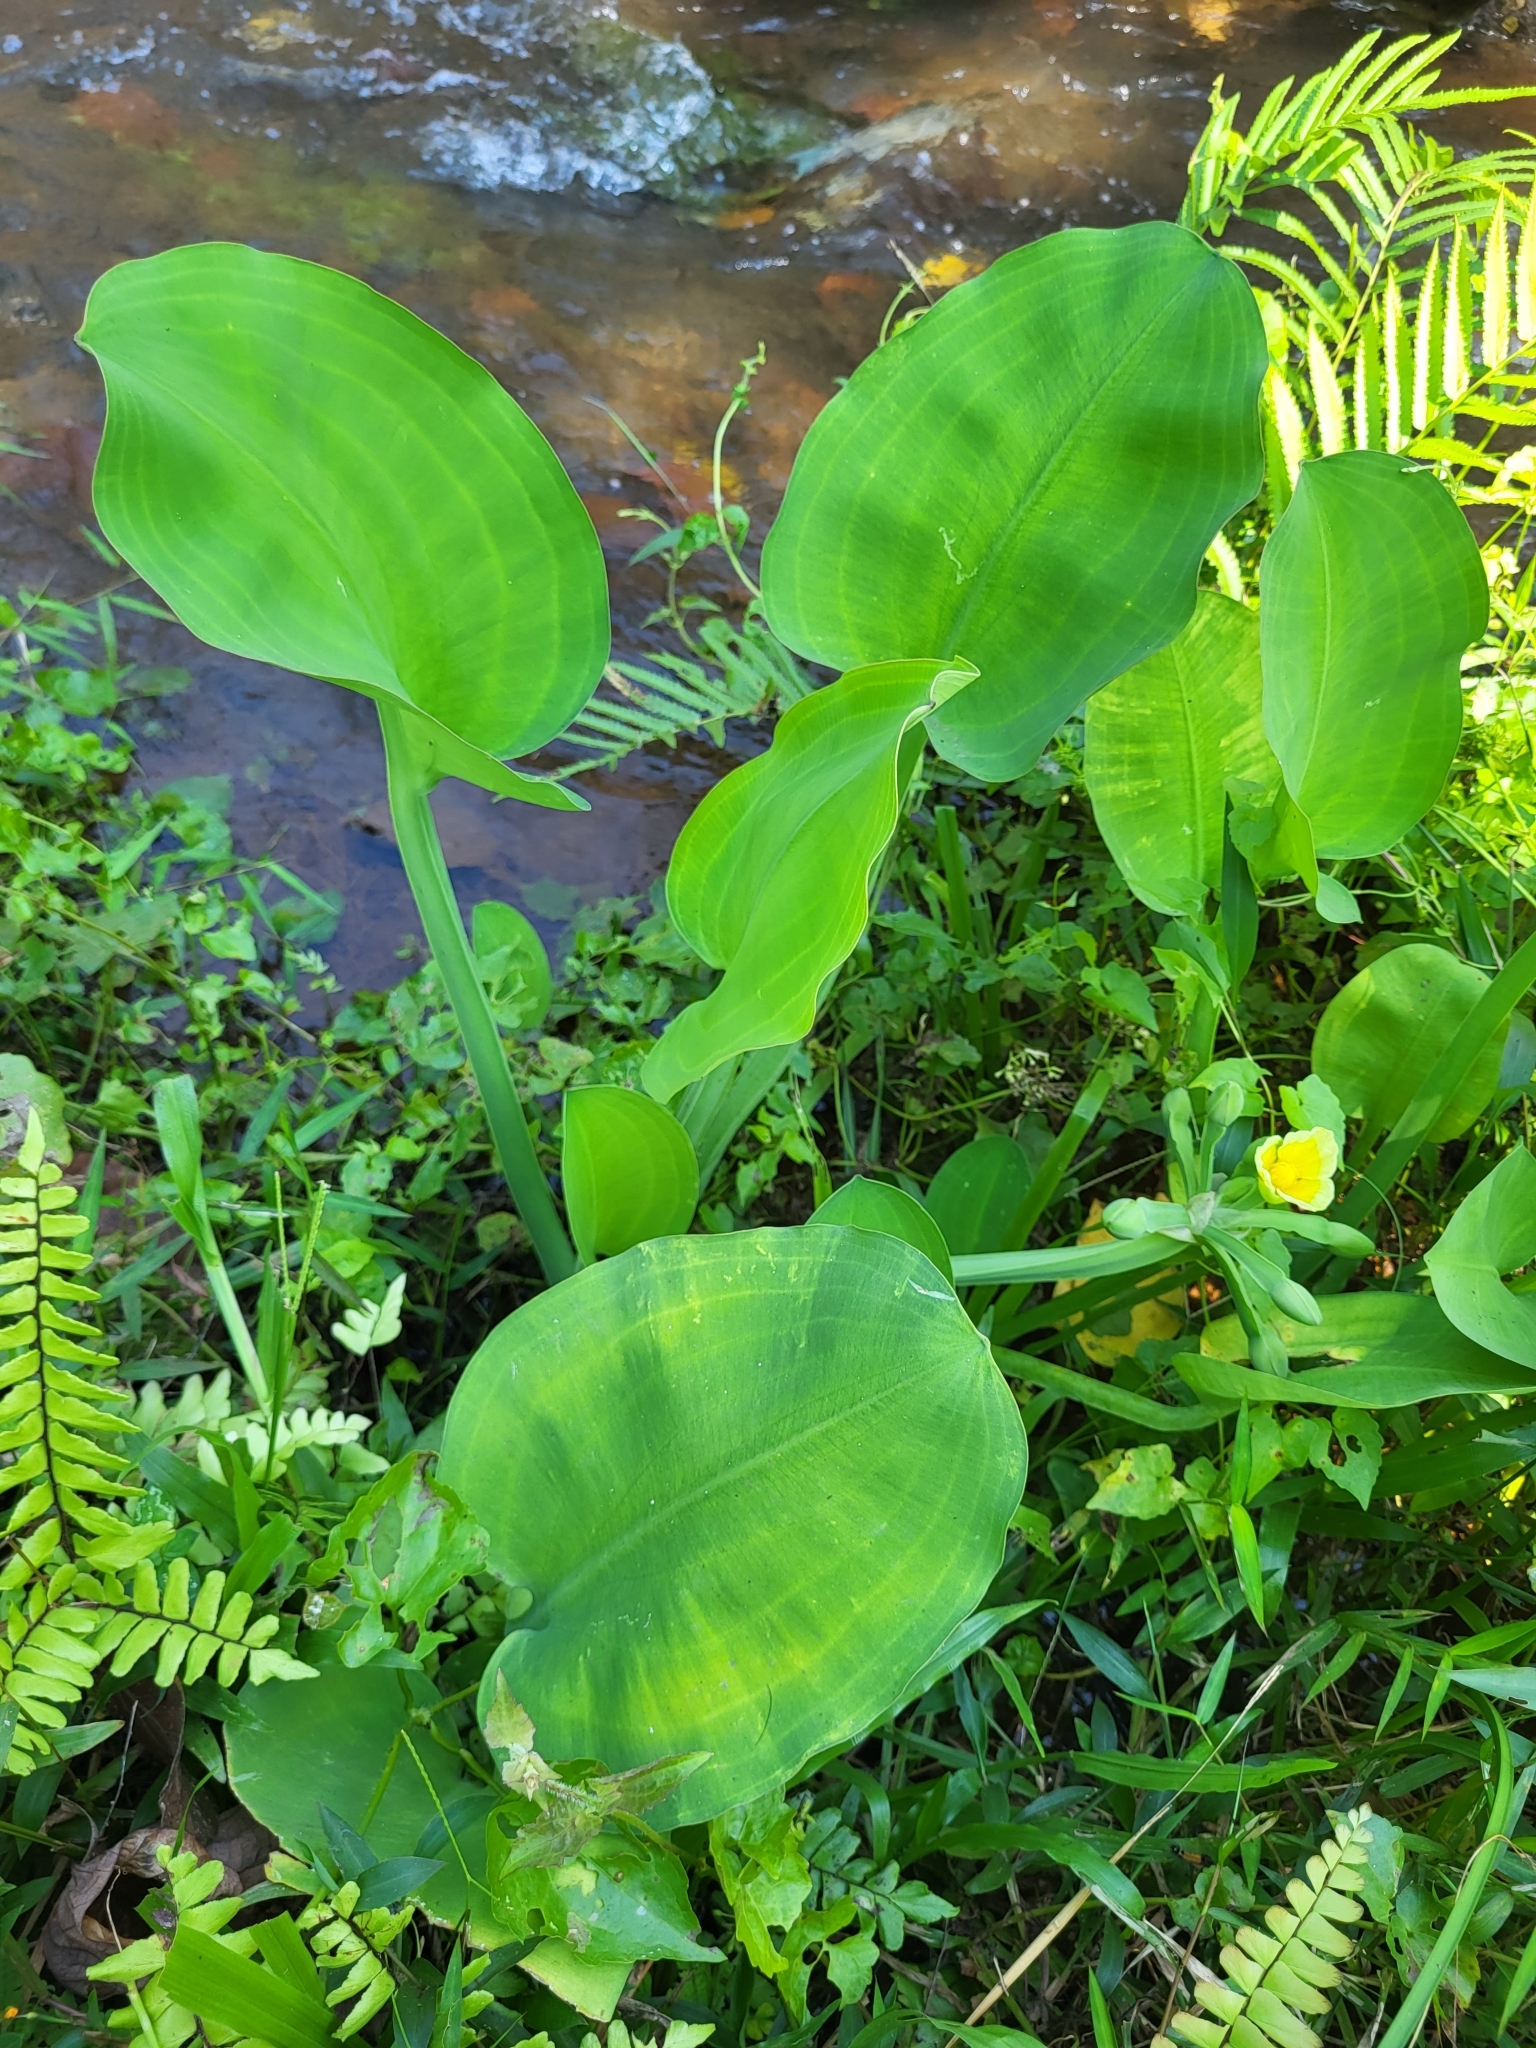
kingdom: Plantae
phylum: Tracheophyta
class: Liliopsida
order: Alismatales
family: Alismataceae
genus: Limnocharis
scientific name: Limnocharis flava
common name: Sawah-flower-rush
